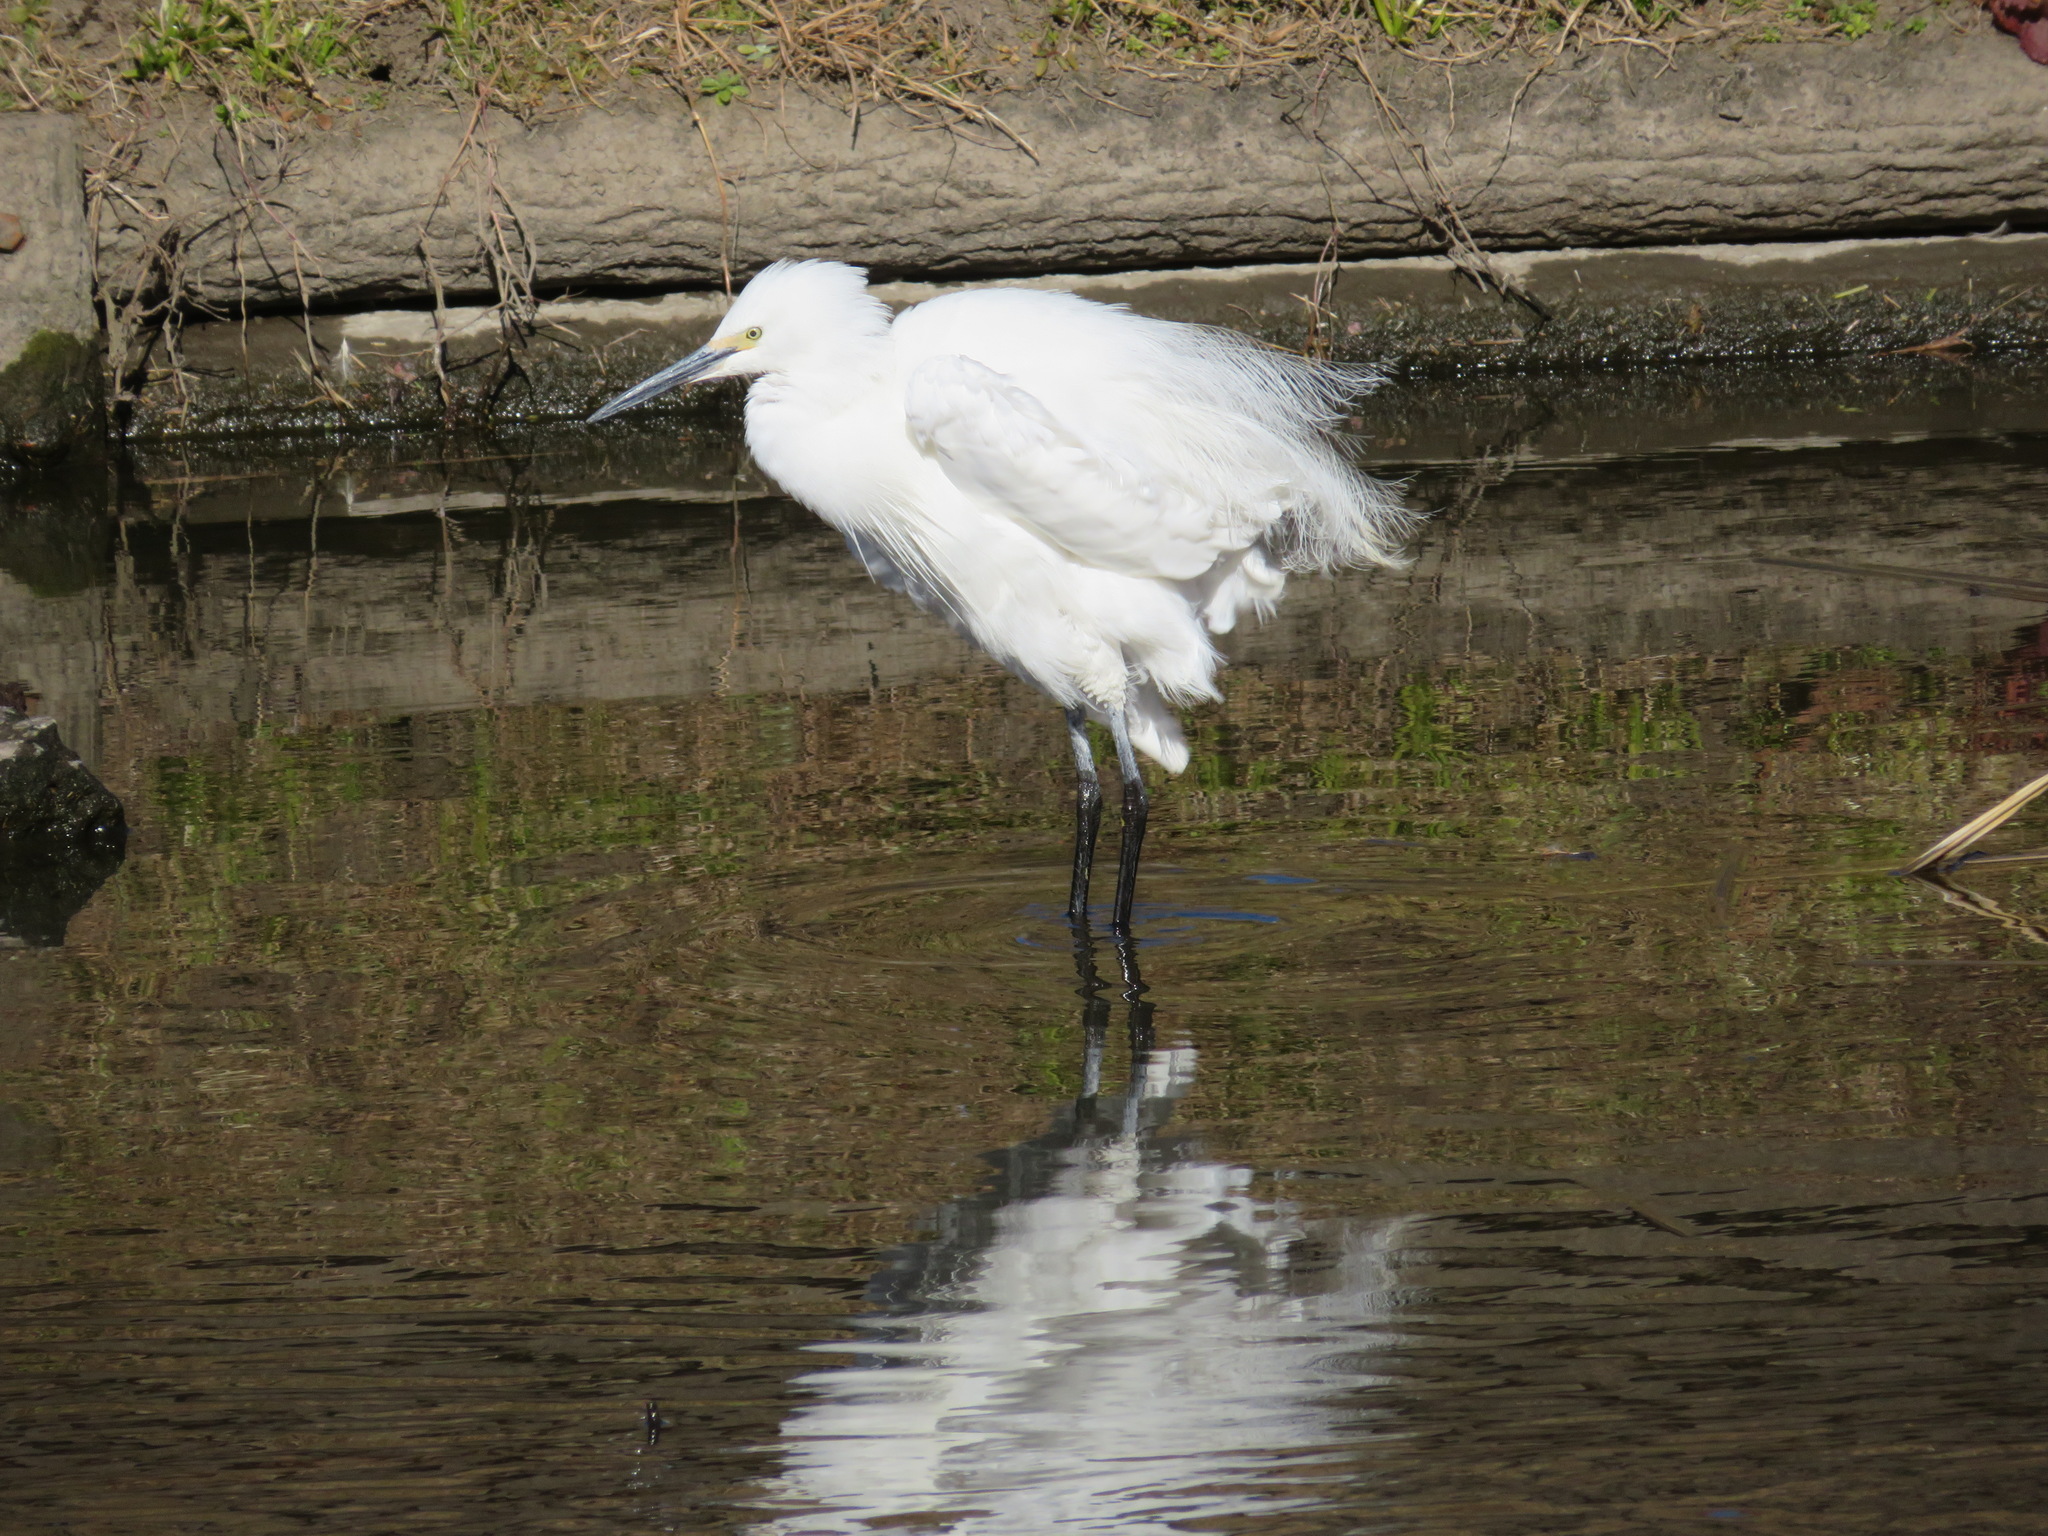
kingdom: Animalia
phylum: Chordata
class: Aves
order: Pelecaniformes
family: Ardeidae
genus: Egretta
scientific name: Egretta garzetta
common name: Little egret
